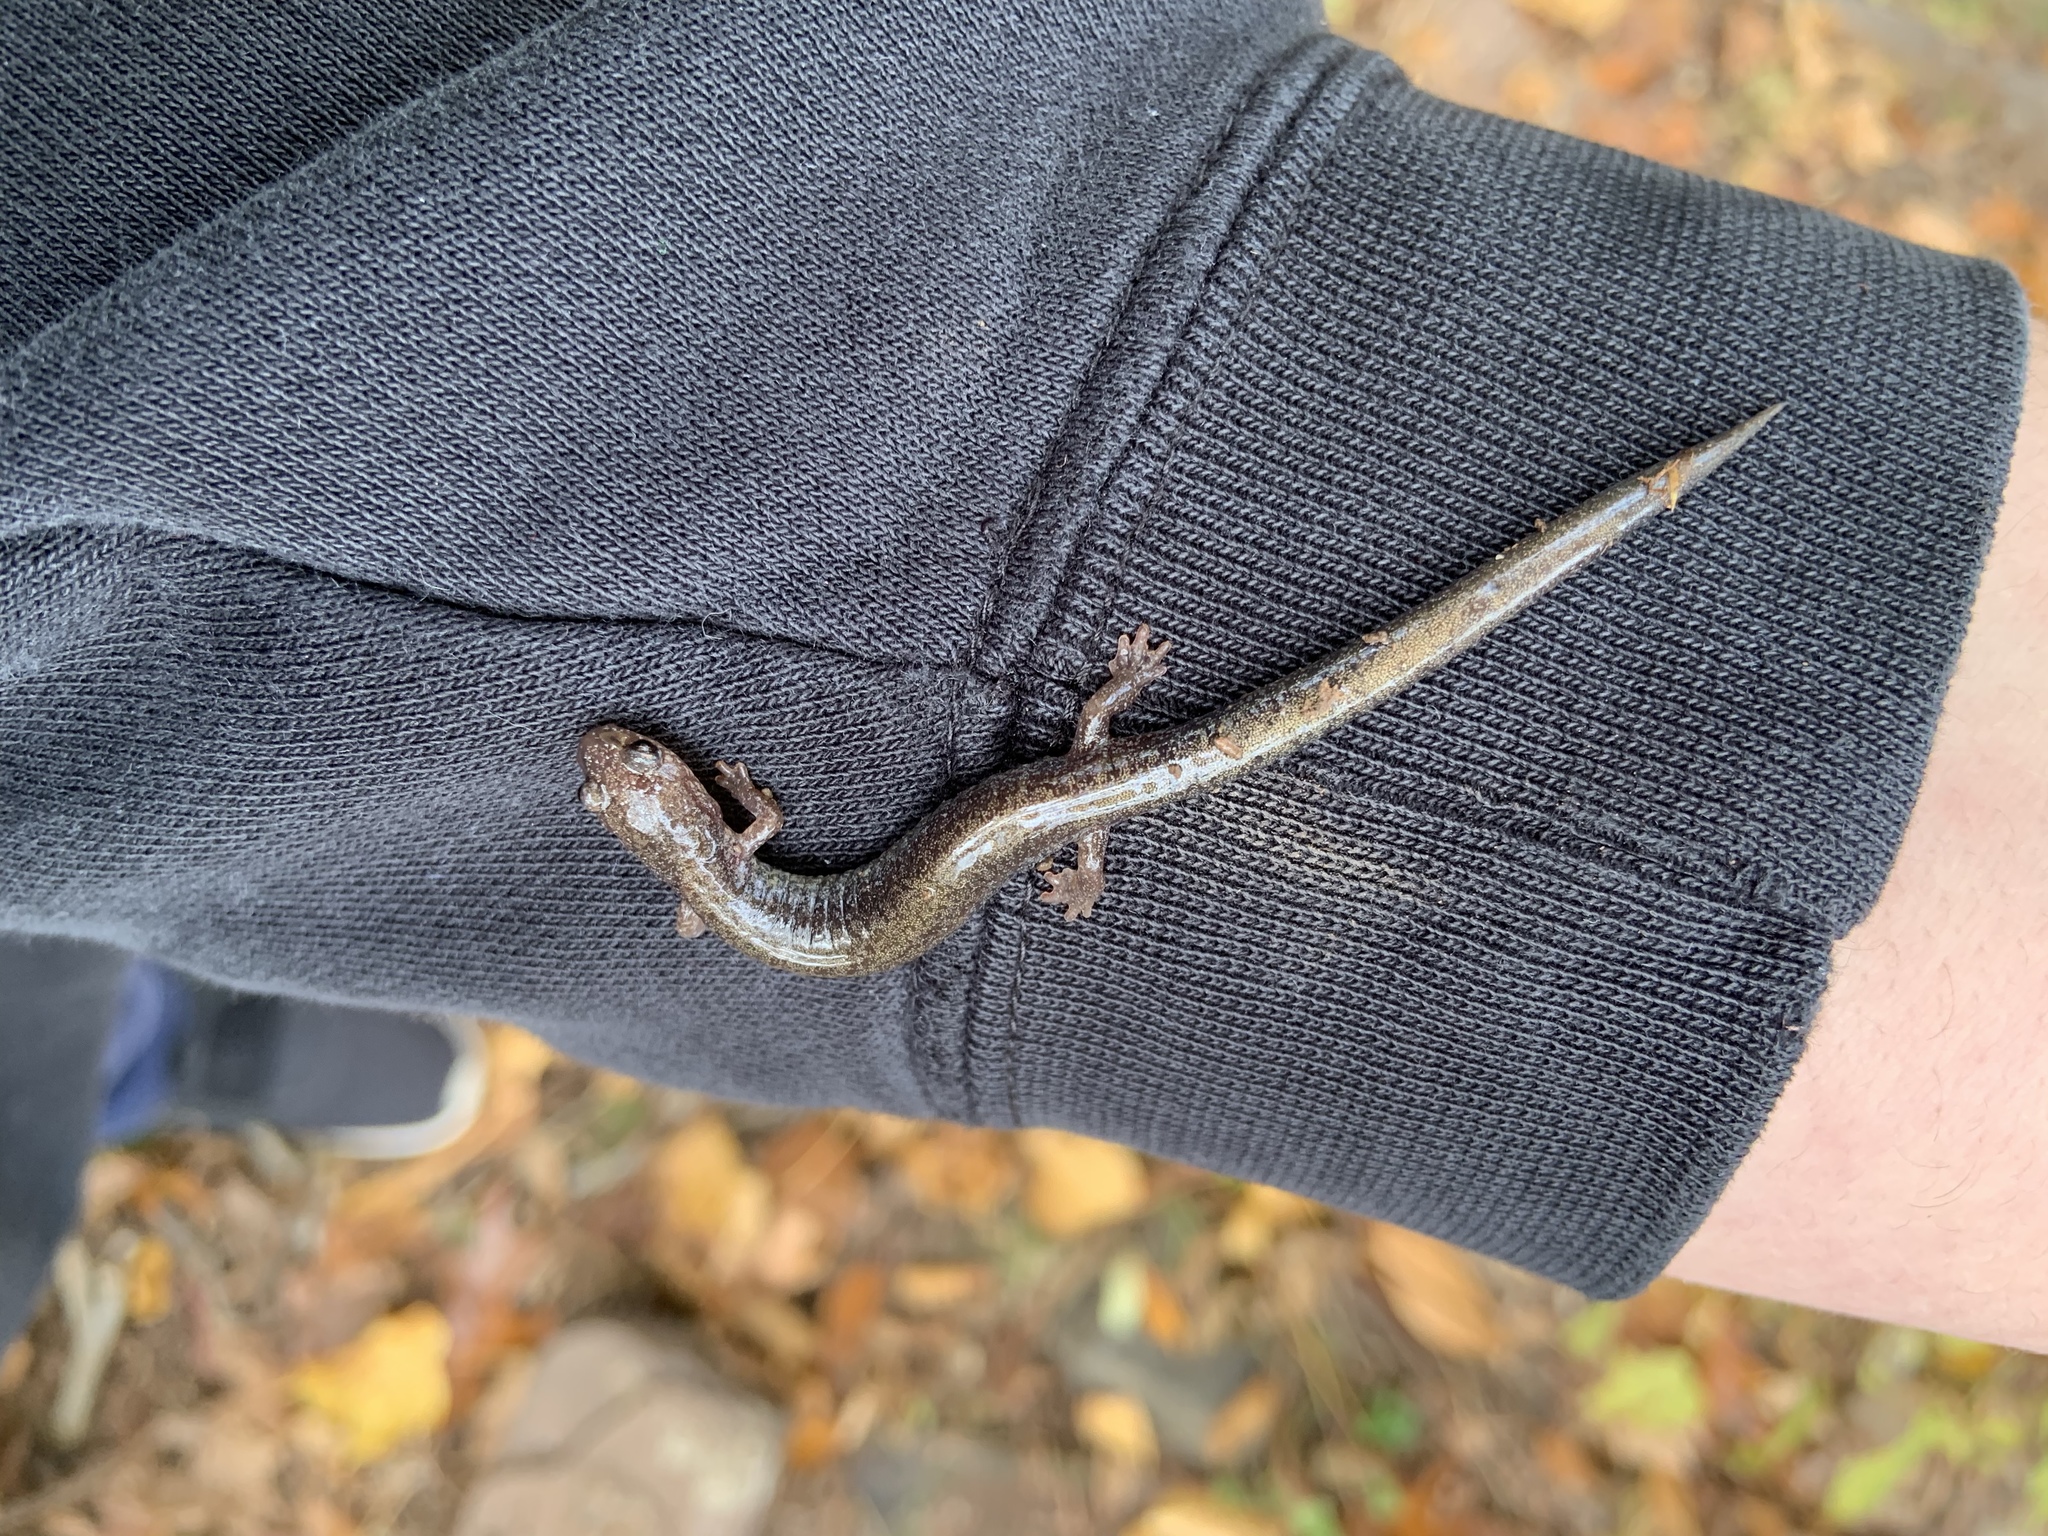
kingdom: Animalia
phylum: Chordata
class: Amphibia
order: Caudata
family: Plethodontidae
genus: Plethodon
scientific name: Plethodon cinereus
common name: Redback salamander
